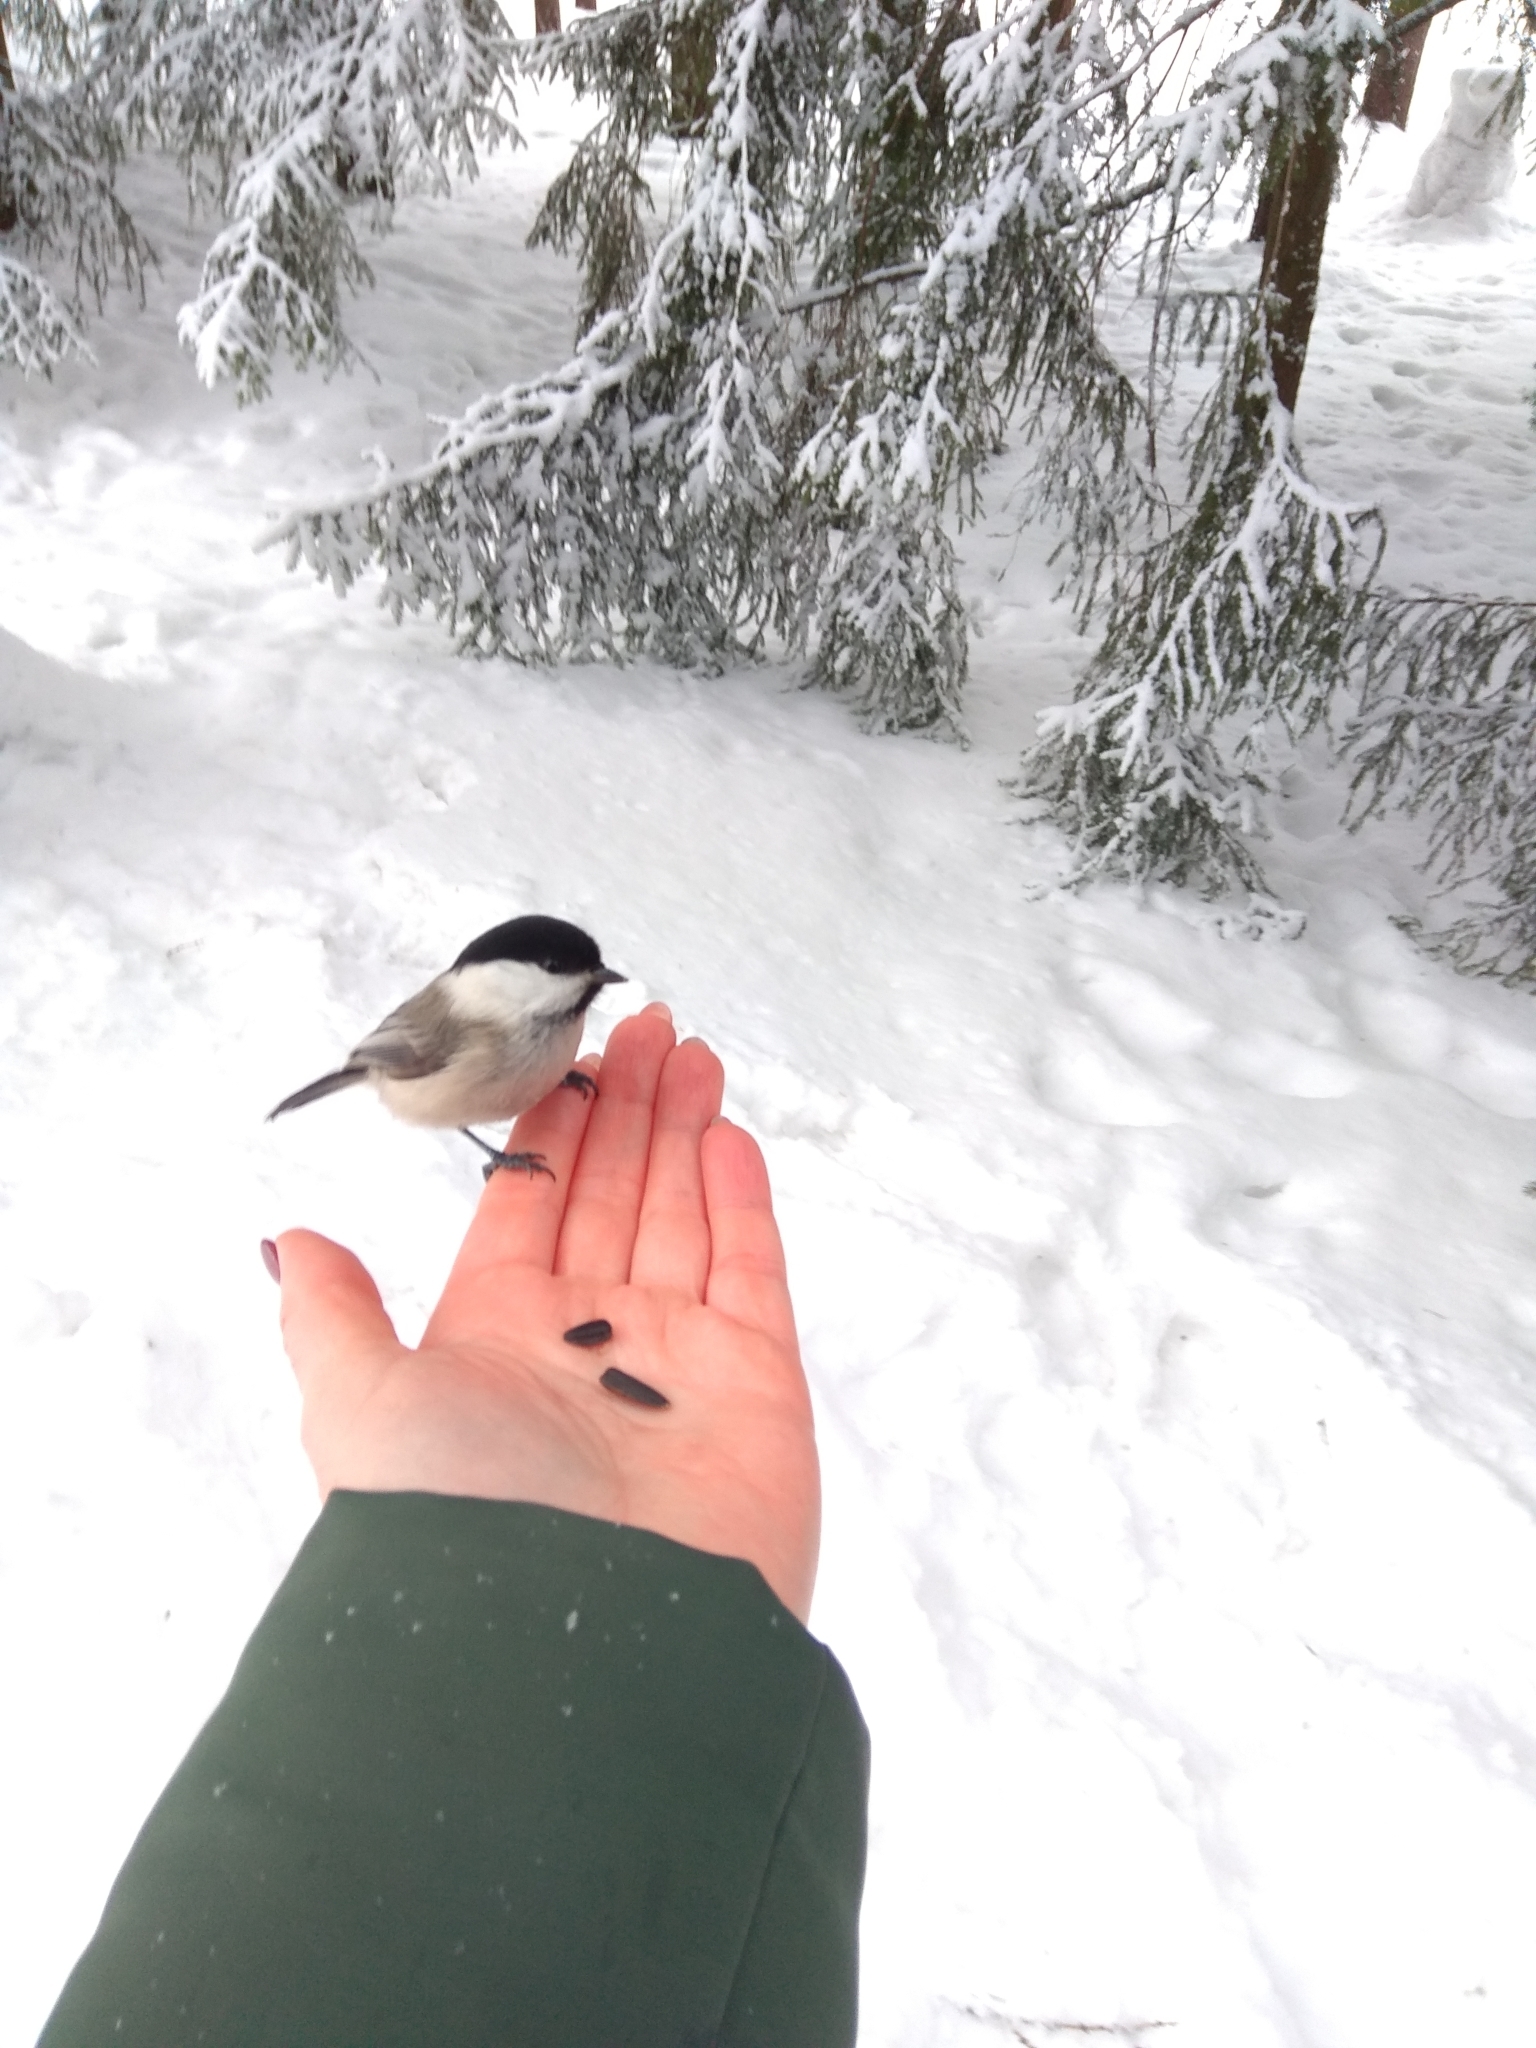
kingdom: Animalia
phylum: Chordata
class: Aves
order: Passeriformes
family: Paridae
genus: Poecile
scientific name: Poecile montanus
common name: Willow tit
